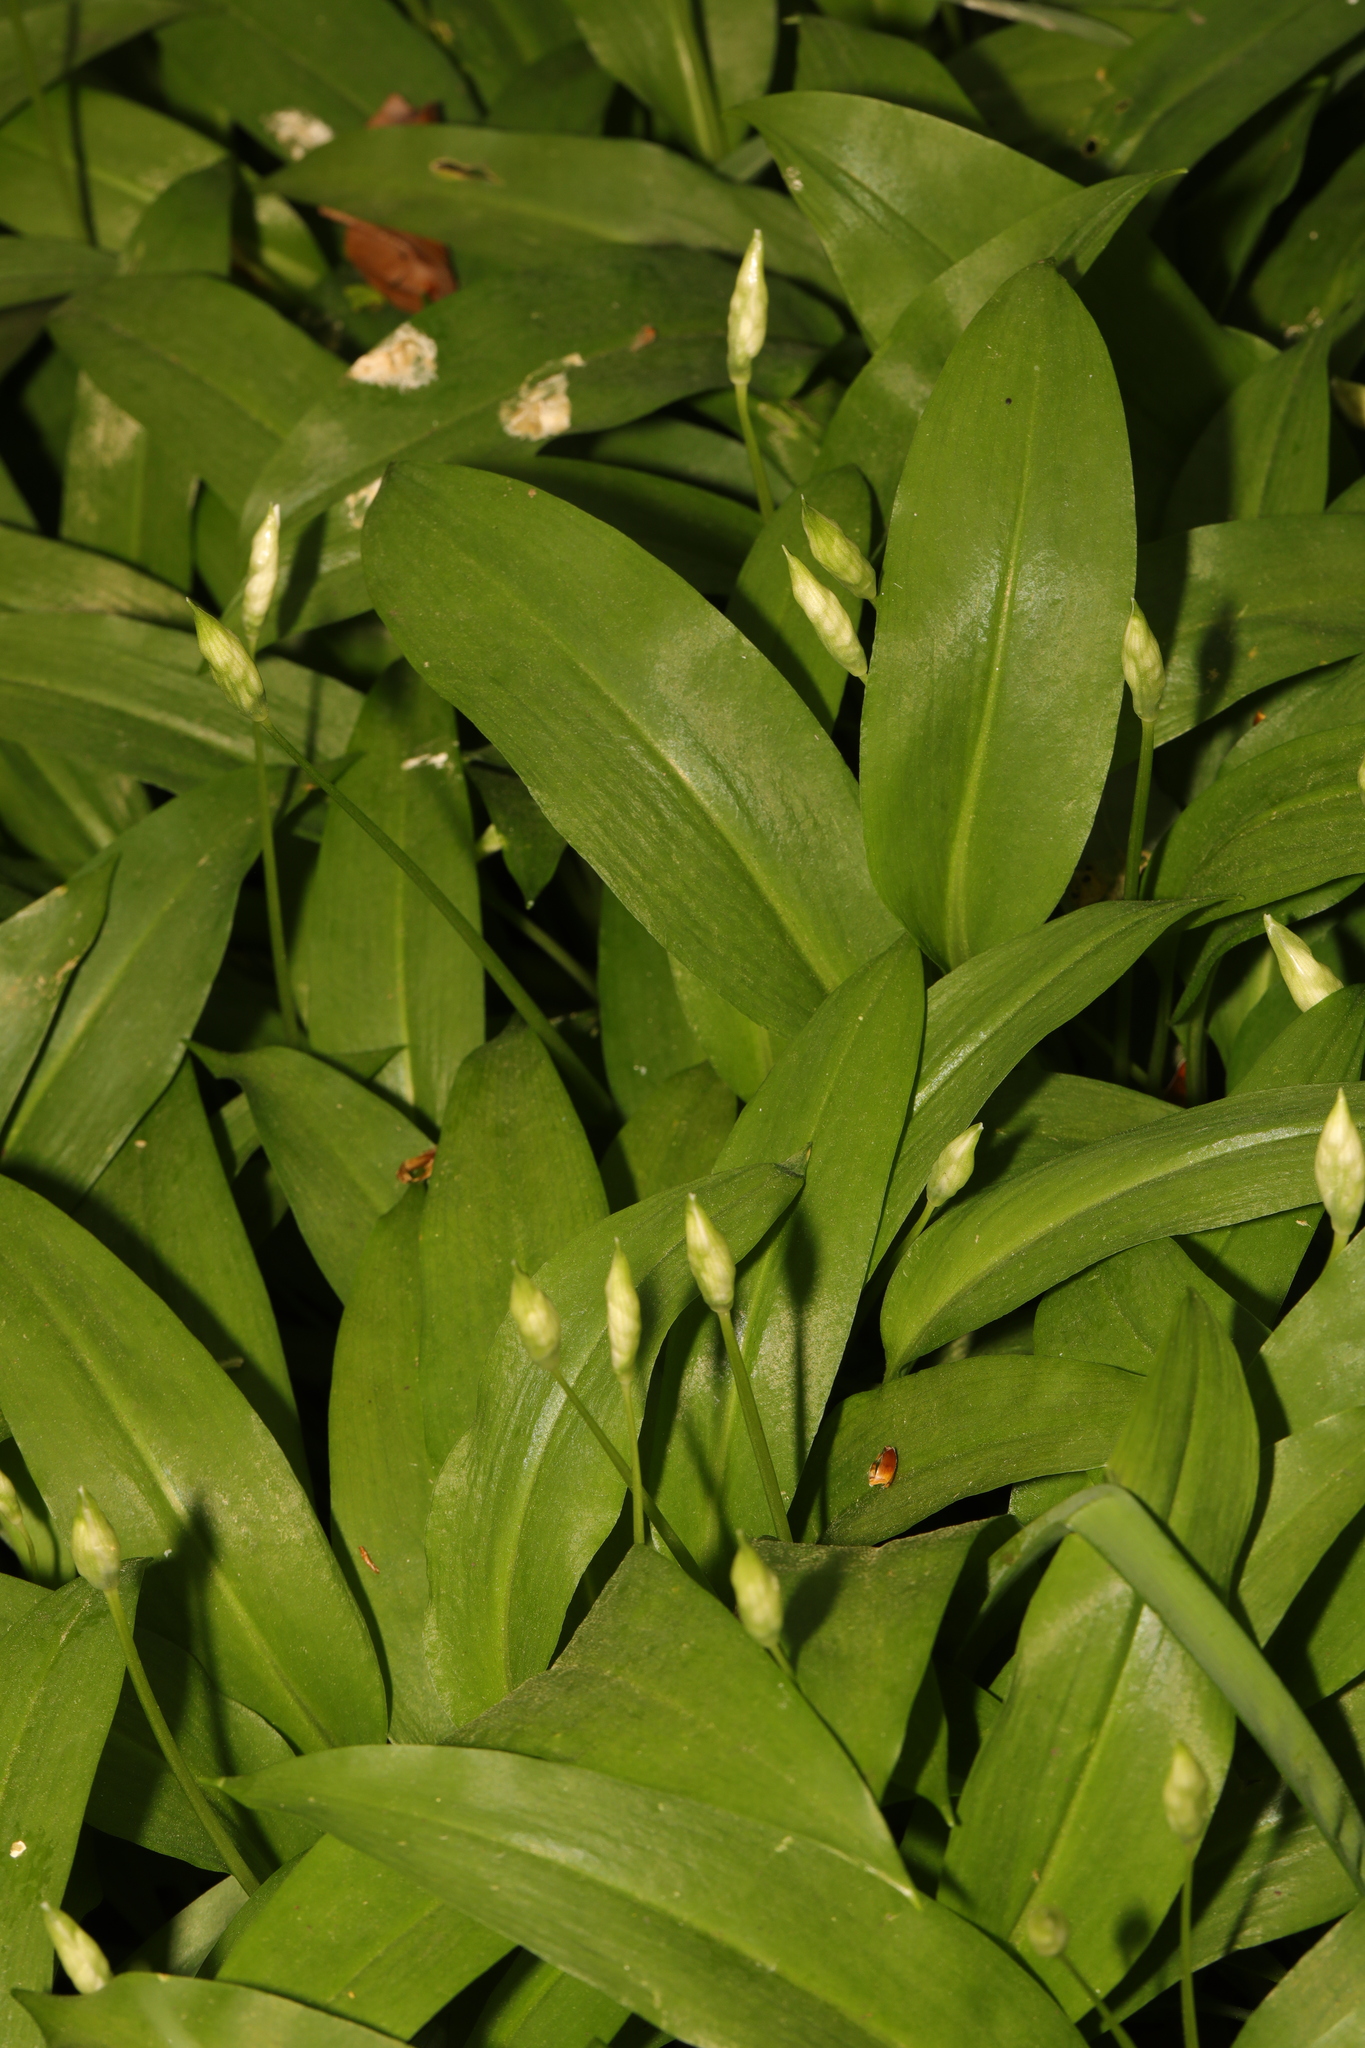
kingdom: Plantae
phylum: Tracheophyta
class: Liliopsida
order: Asparagales
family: Amaryllidaceae
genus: Allium
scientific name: Allium ursinum
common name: Ramsons
